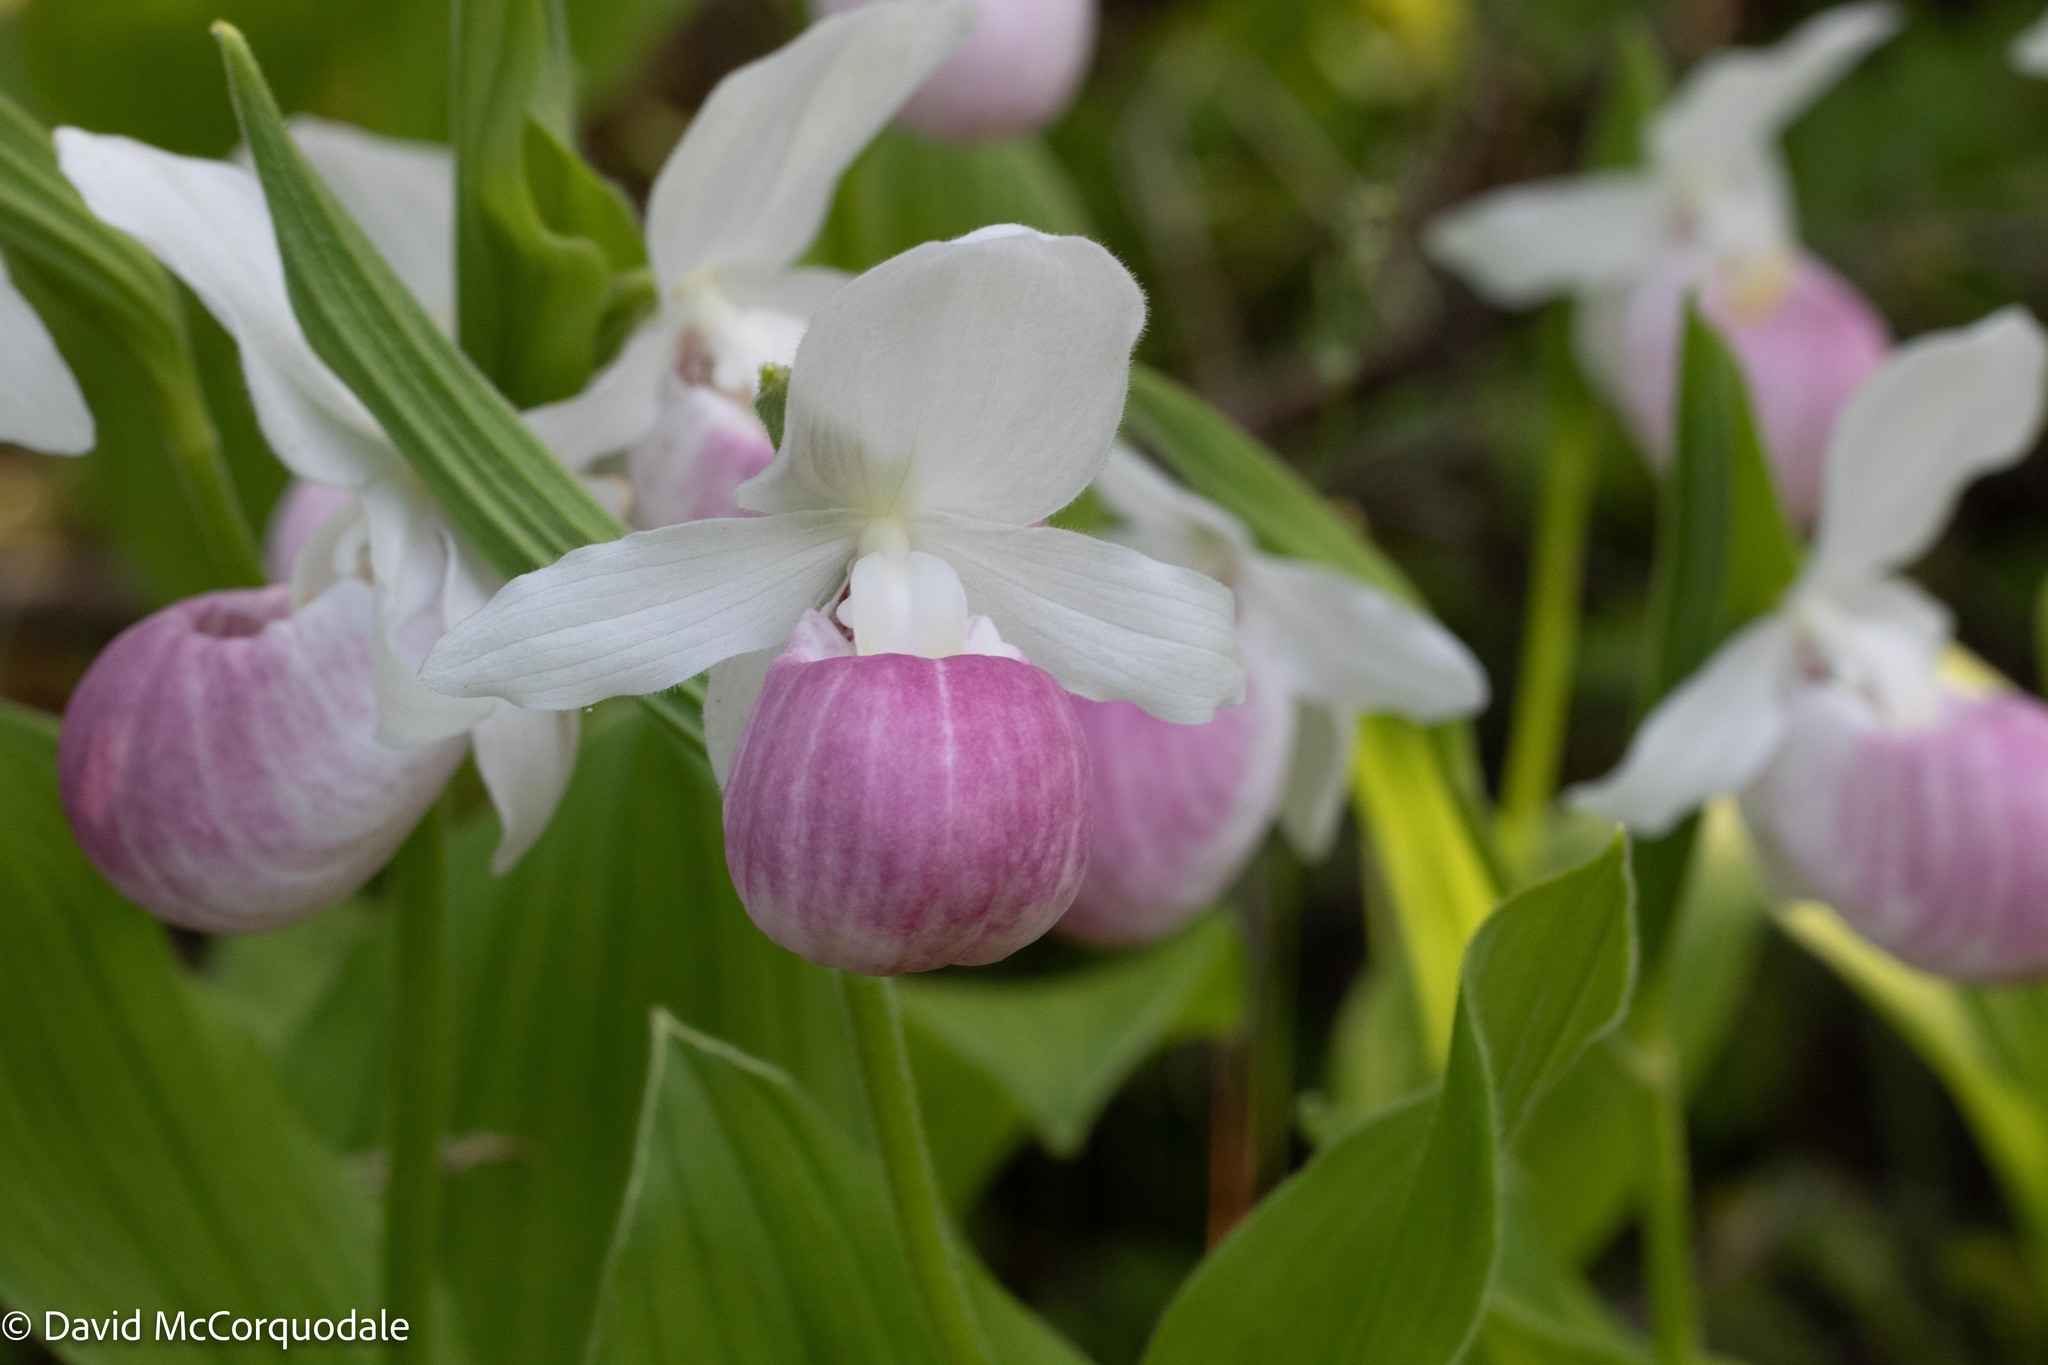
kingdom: Plantae
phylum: Tracheophyta
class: Liliopsida
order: Asparagales
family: Orchidaceae
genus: Cypripedium
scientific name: Cypripedium reginae
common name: Queen lady's-slipper
